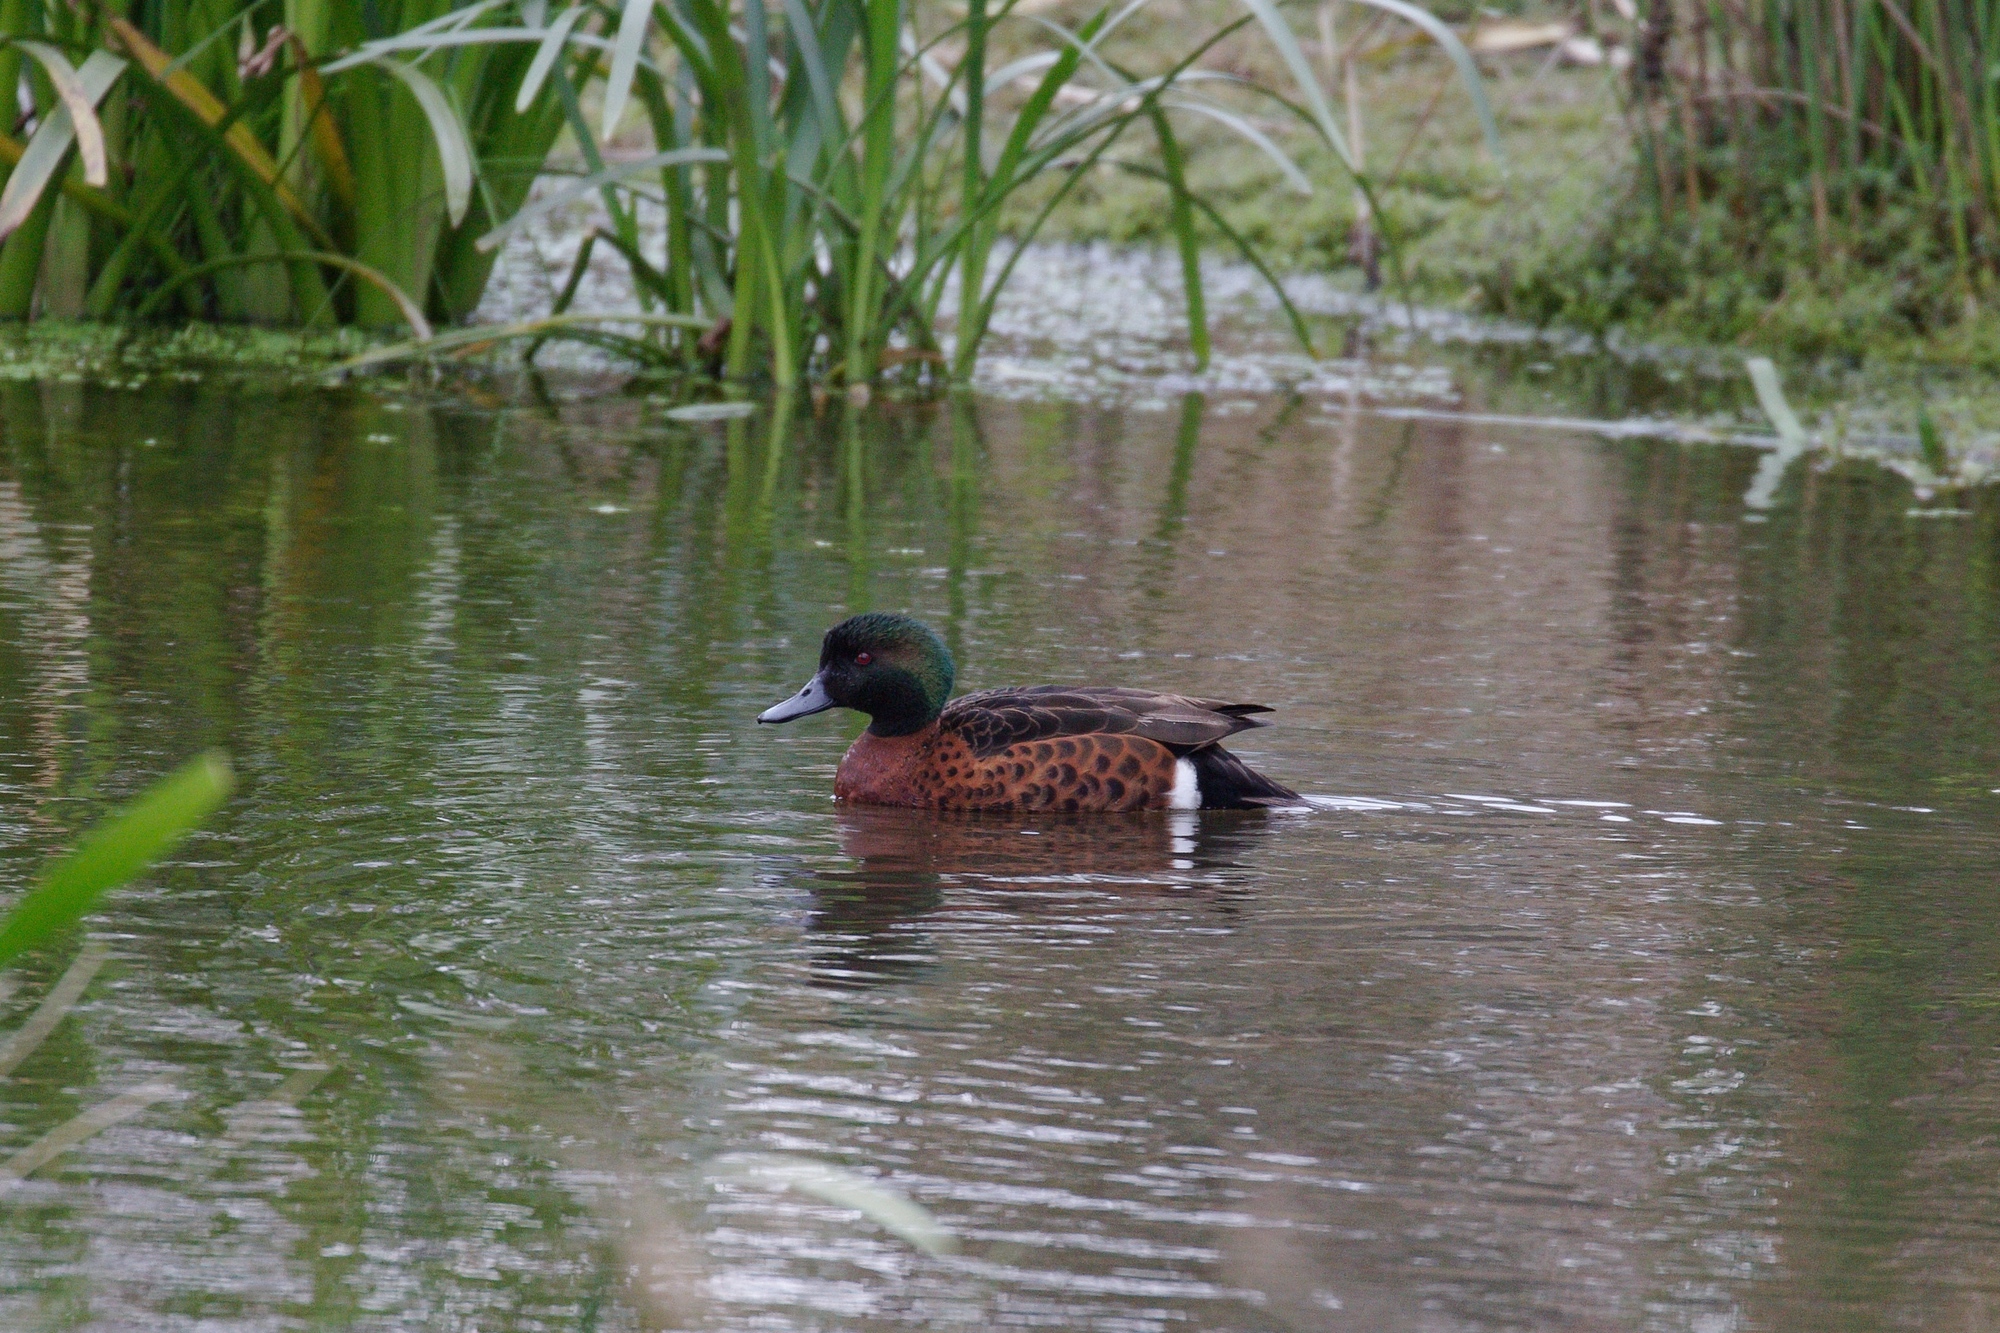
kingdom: Animalia
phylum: Chordata
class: Aves
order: Anseriformes
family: Anatidae
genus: Anas
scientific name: Anas castanea
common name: Chestnut teal
